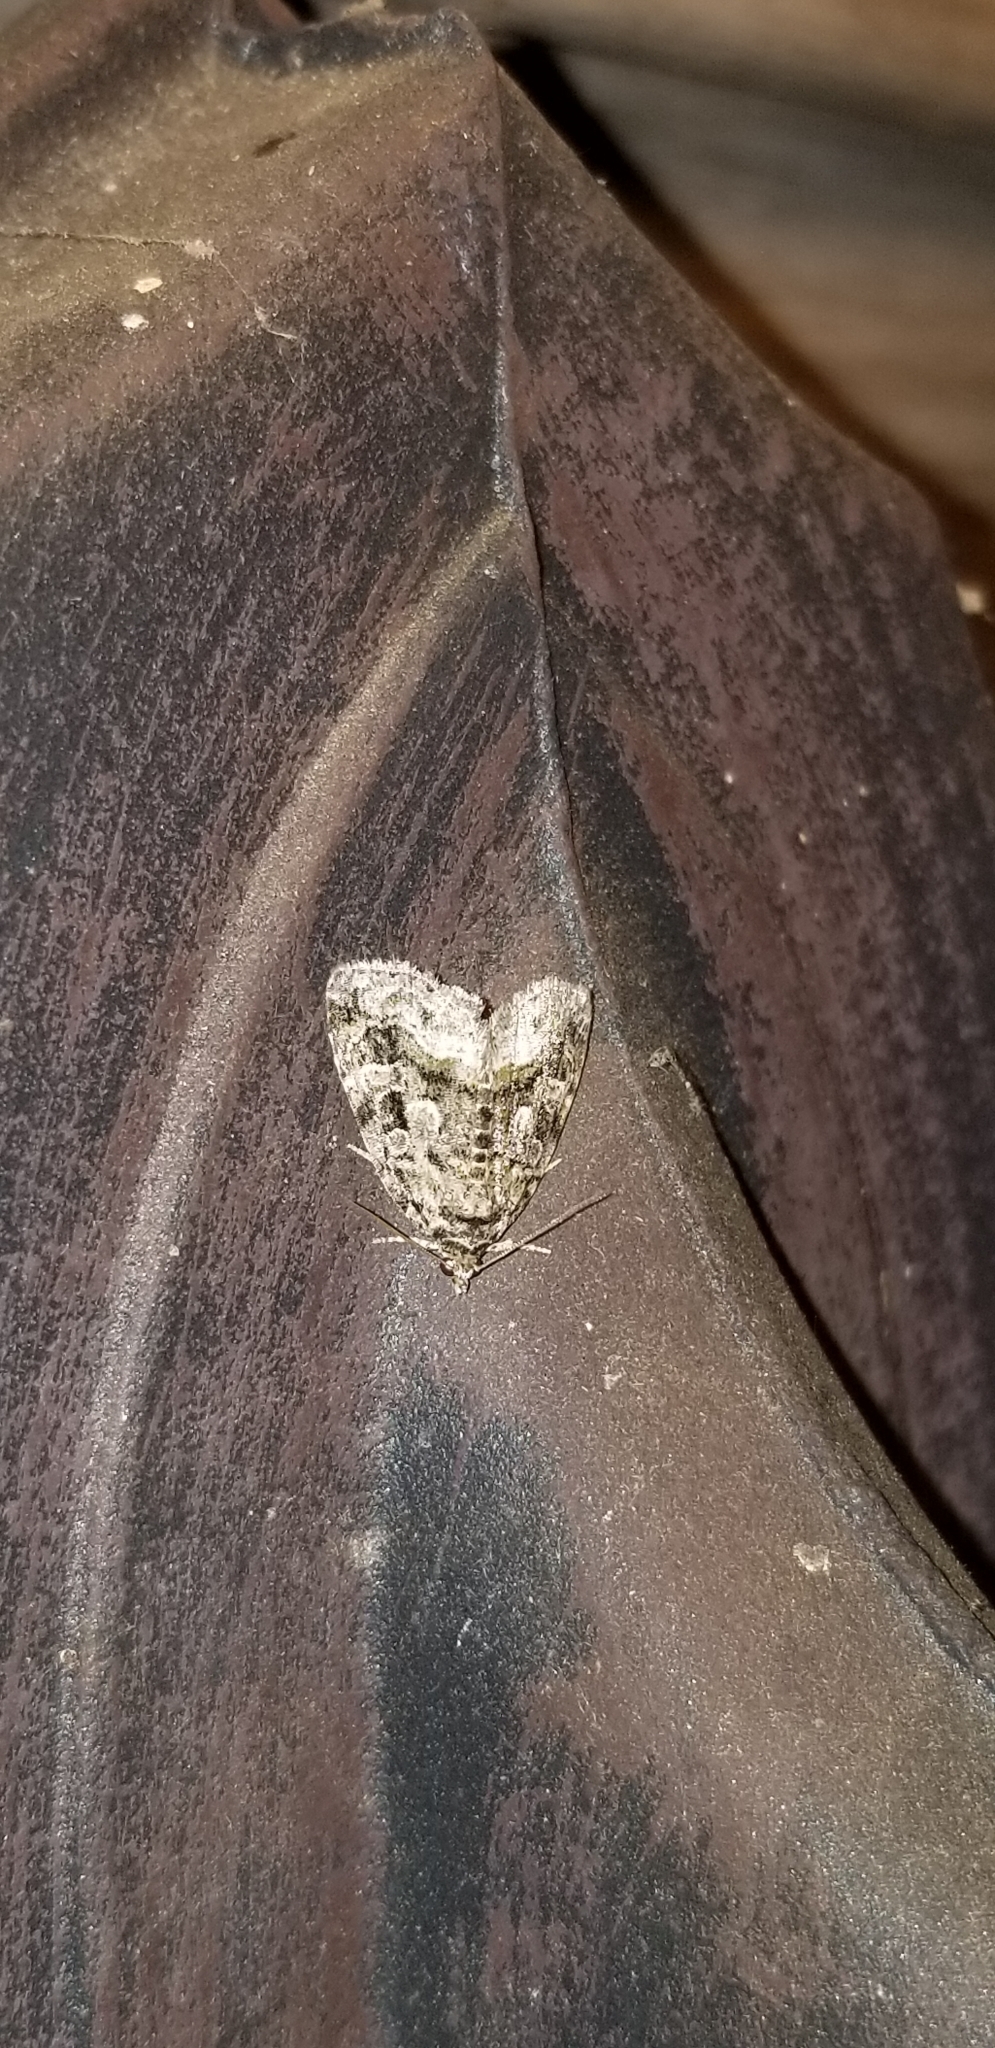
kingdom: Animalia
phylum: Arthropoda
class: Insecta
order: Lepidoptera
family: Noctuidae
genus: Protodeltote
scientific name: Protodeltote muscosula
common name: Large mossy glyph
